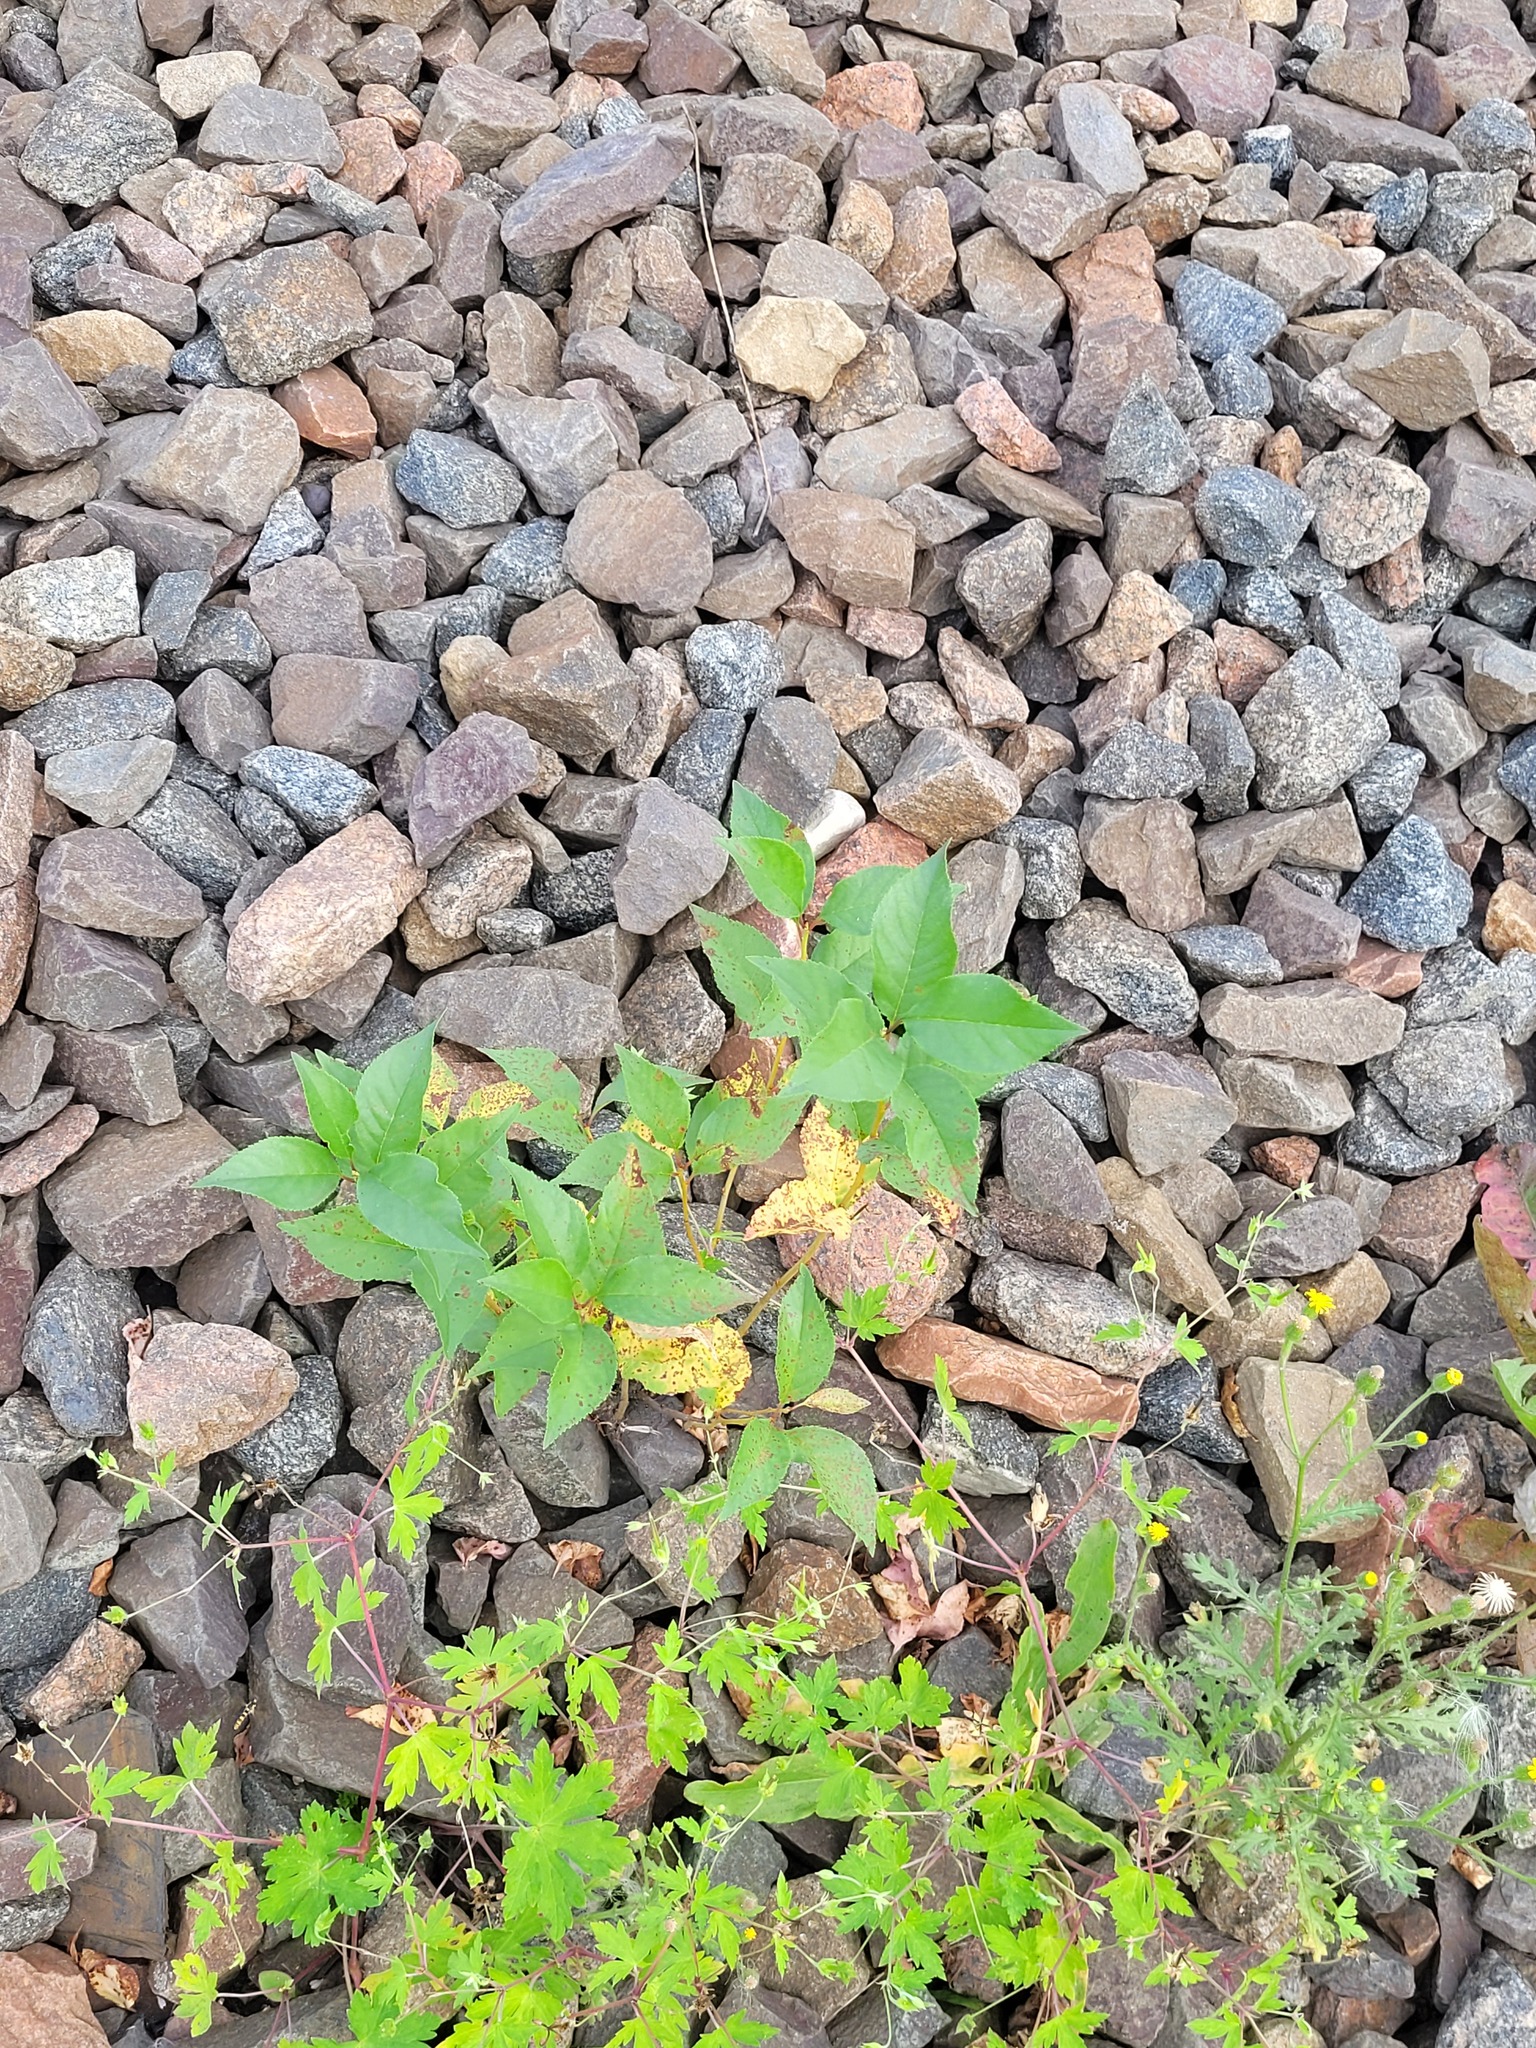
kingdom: Plantae
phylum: Tracheophyta
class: Magnoliopsida
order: Rosales
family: Rosaceae
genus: Prunus
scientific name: Prunus cerasus
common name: Morello cherry
